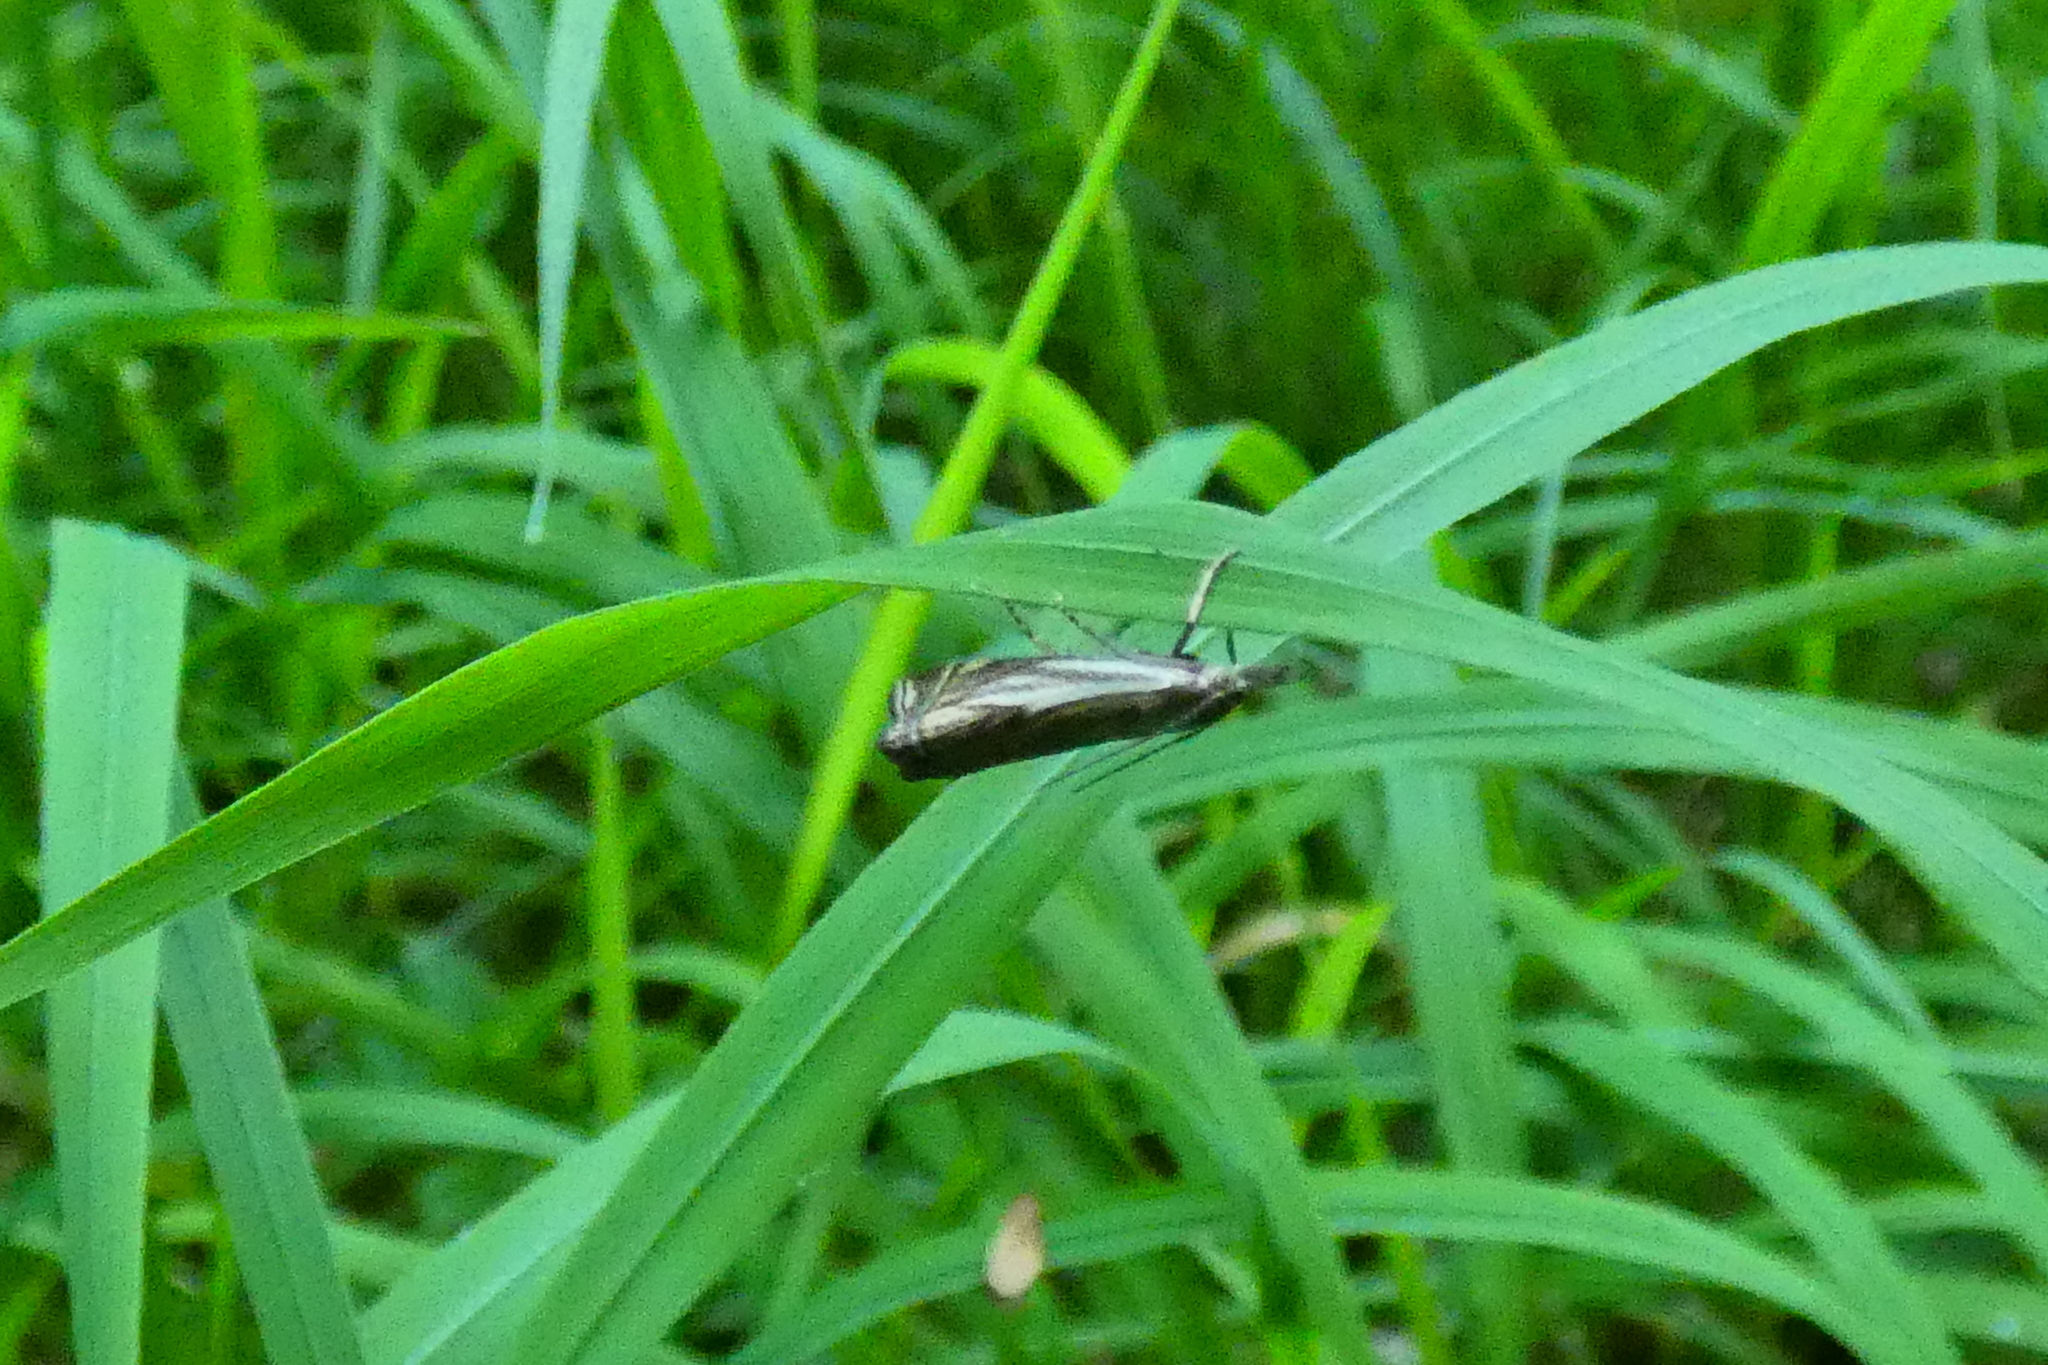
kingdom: Animalia
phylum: Arthropoda
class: Insecta
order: Lepidoptera
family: Crambidae
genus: Crambus
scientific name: Crambus nemorella
